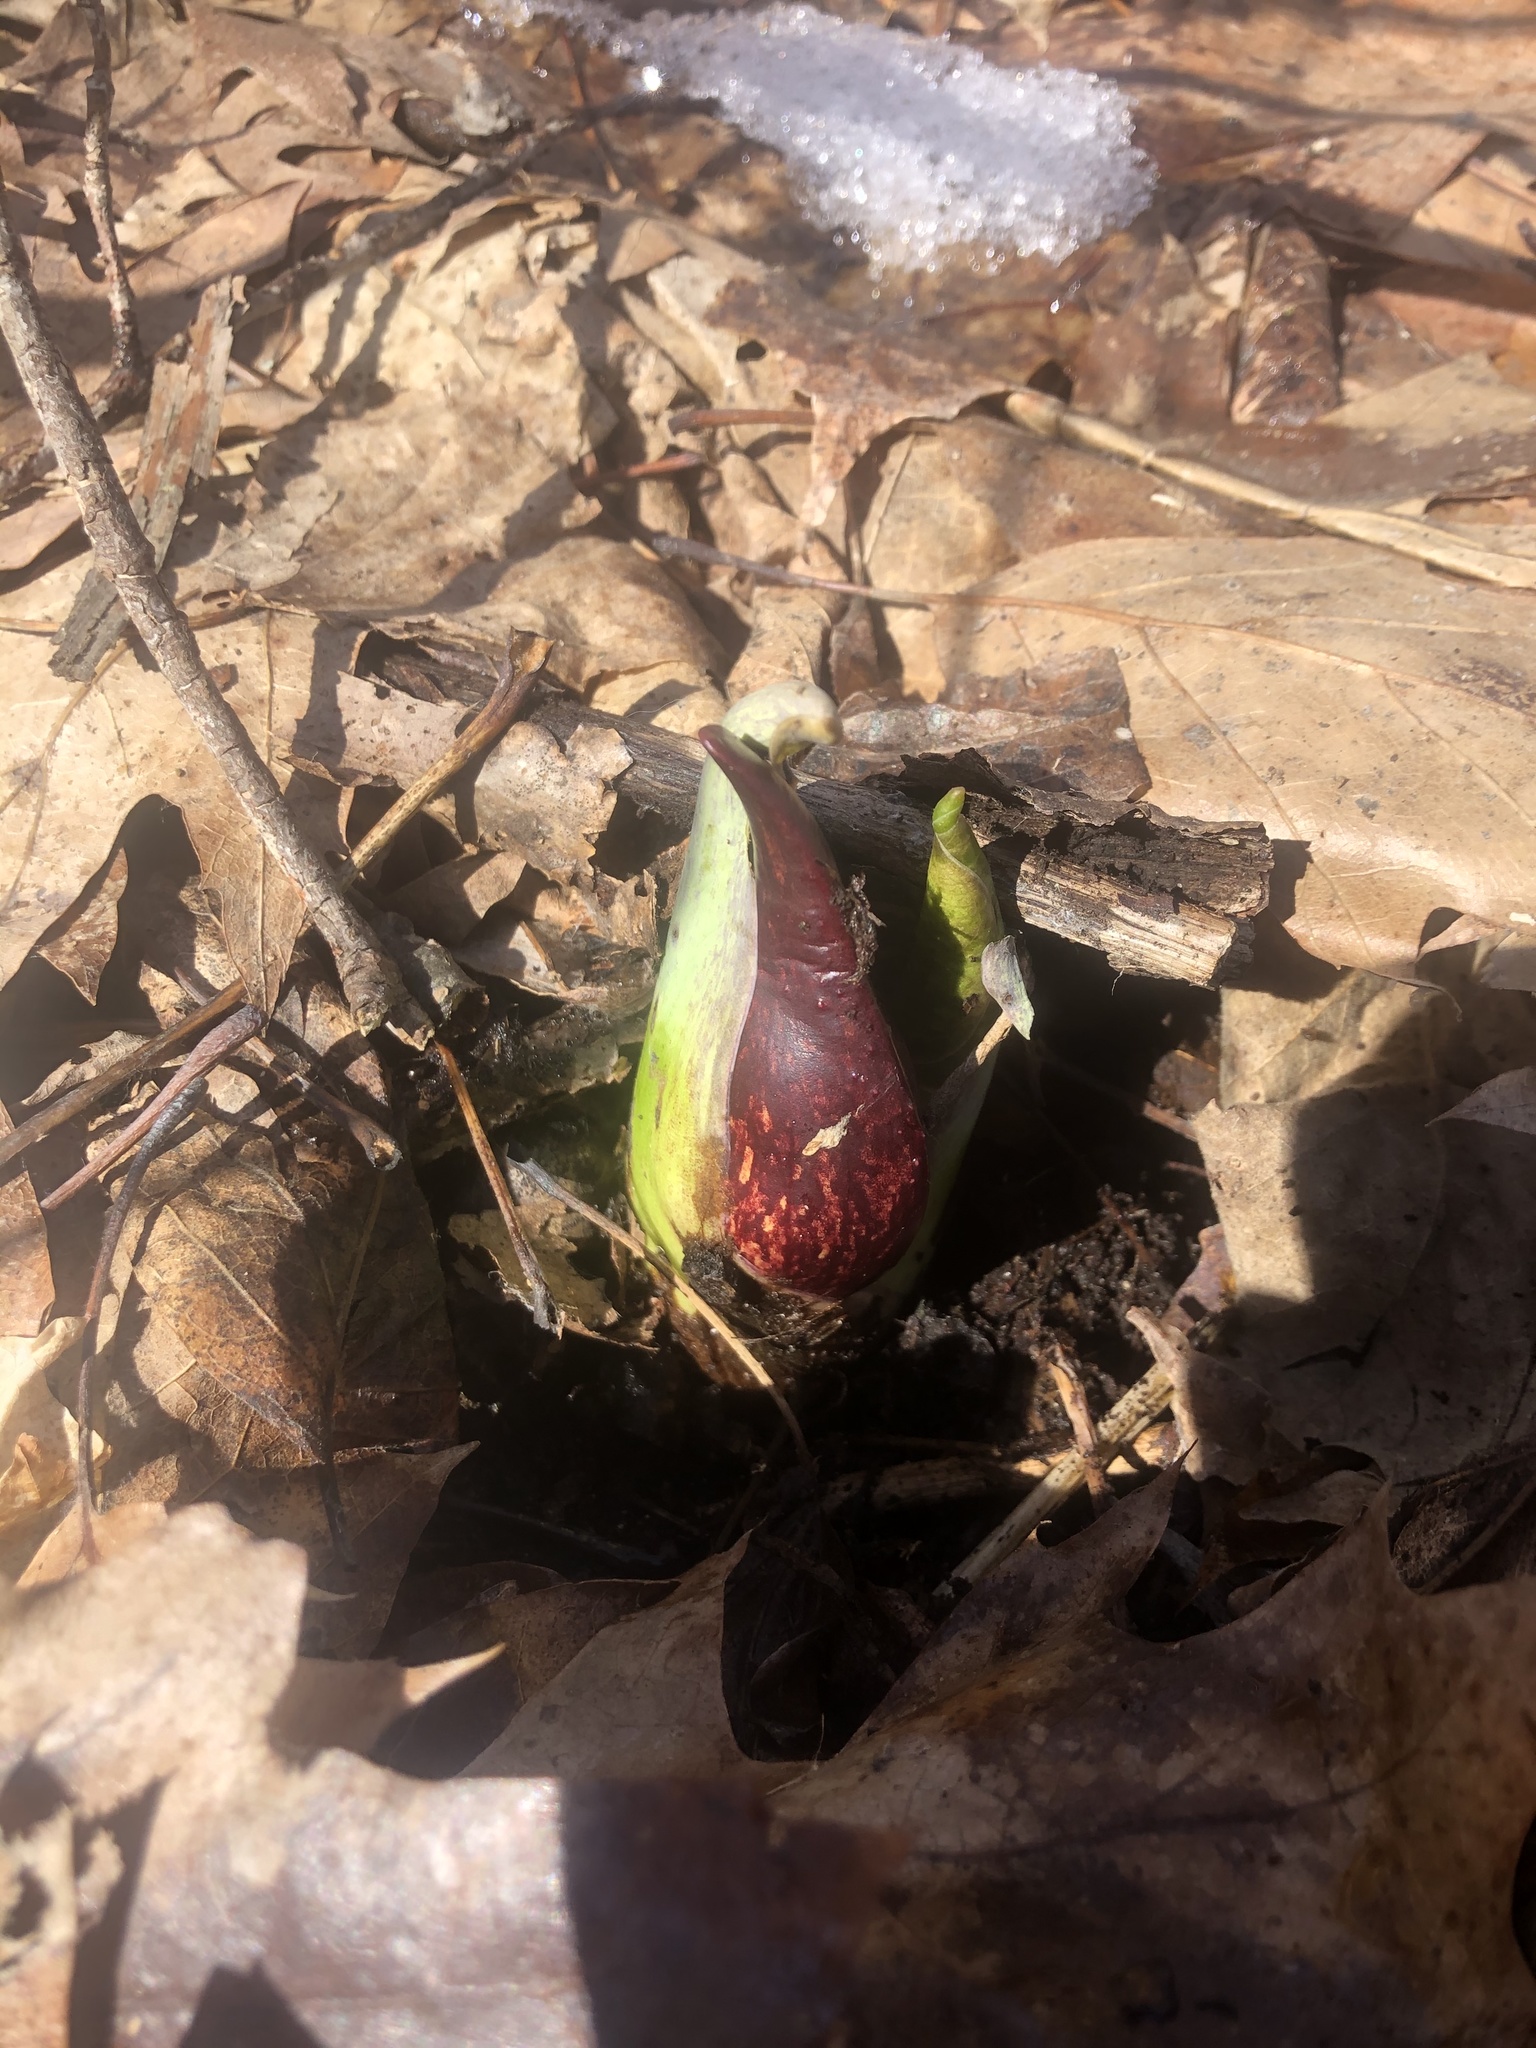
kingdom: Plantae
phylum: Tracheophyta
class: Liliopsida
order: Alismatales
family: Araceae
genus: Symplocarpus
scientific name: Symplocarpus foetidus
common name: Eastern skunk cabbage
